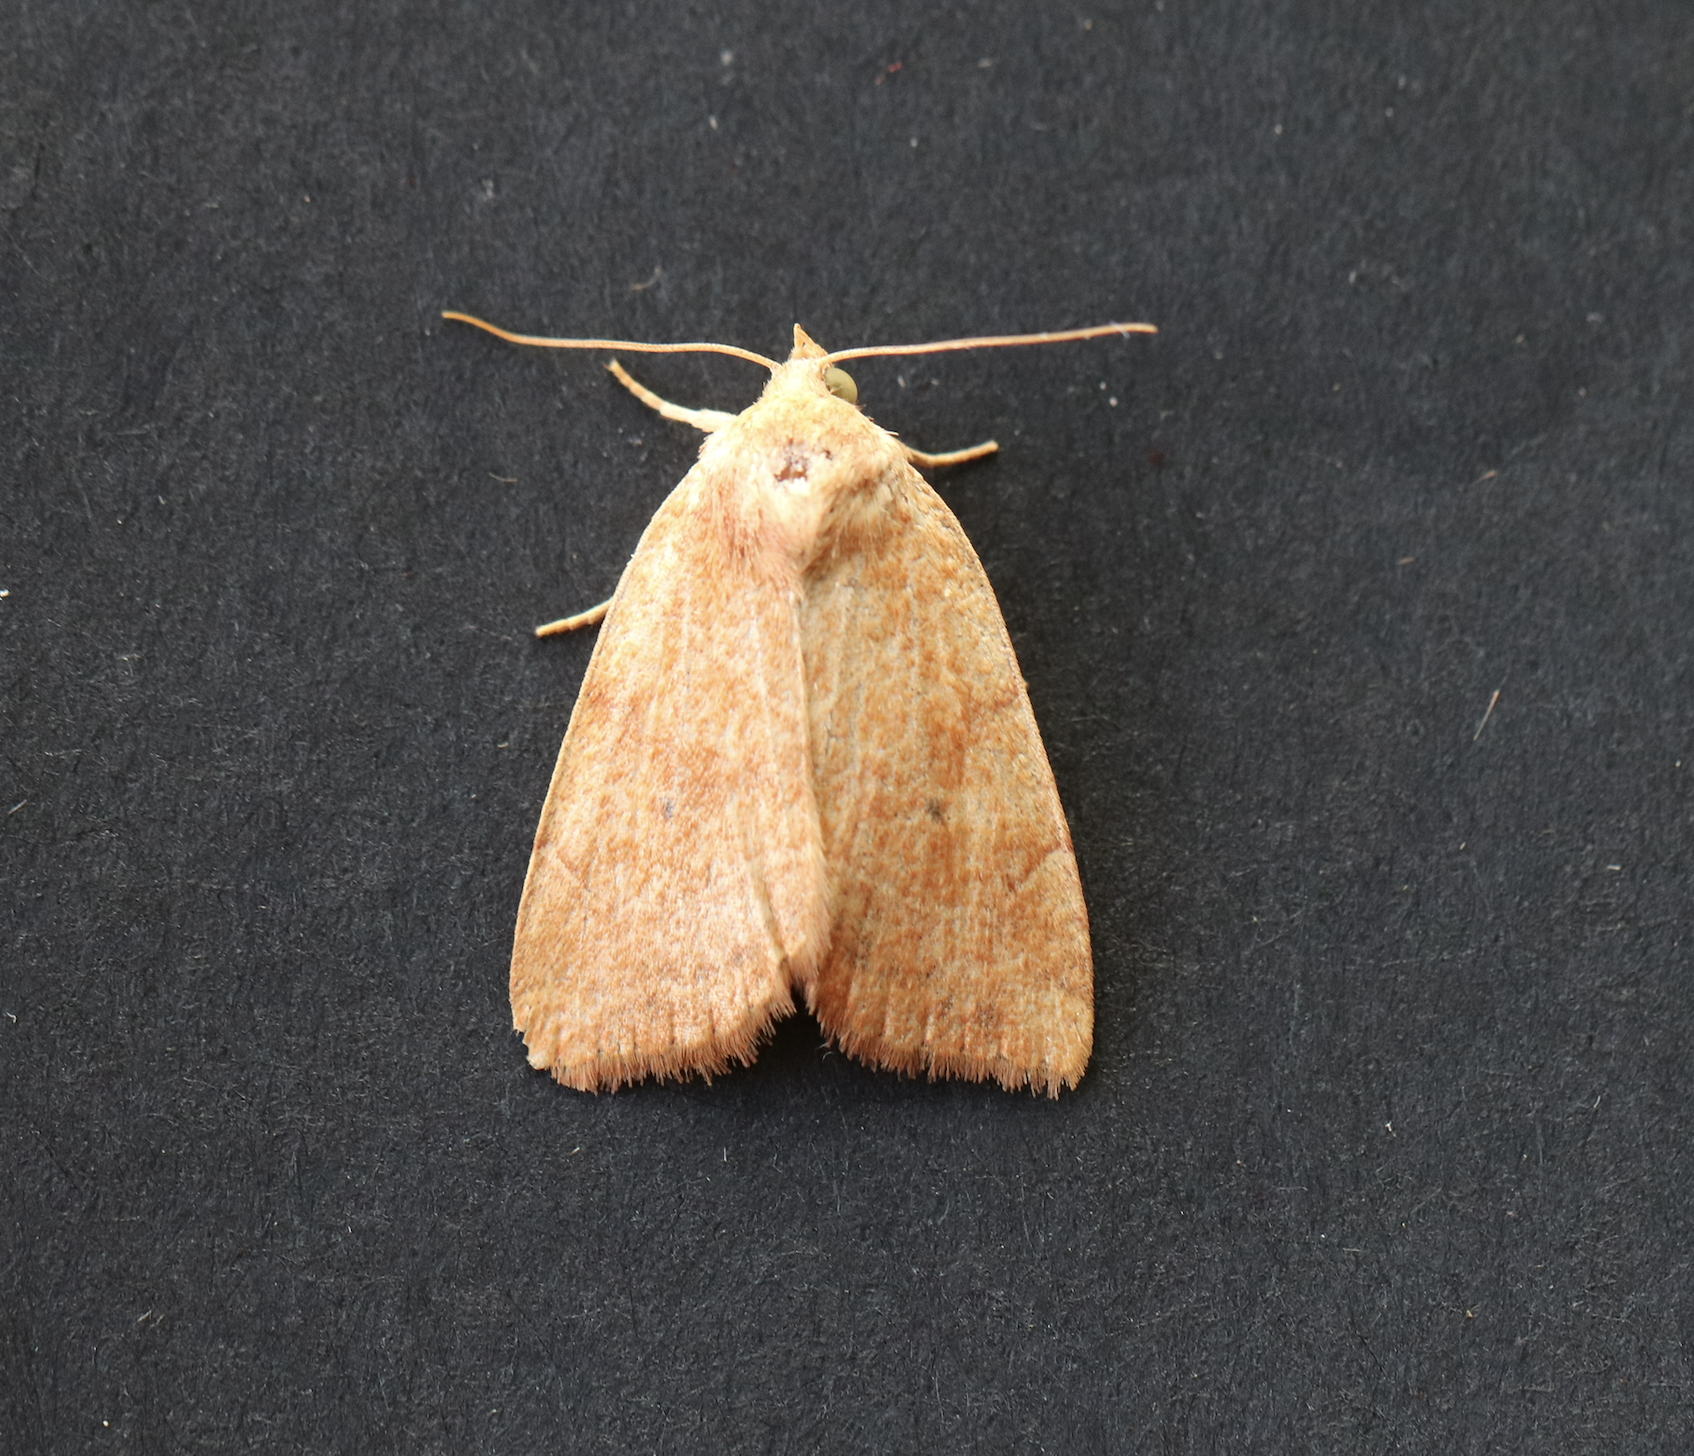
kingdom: Animalia
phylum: Arthropoda
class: Insecta
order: Lepidoptera
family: Noctuidae
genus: Cosmia
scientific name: Cosmia trapezina
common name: Dun-bar
